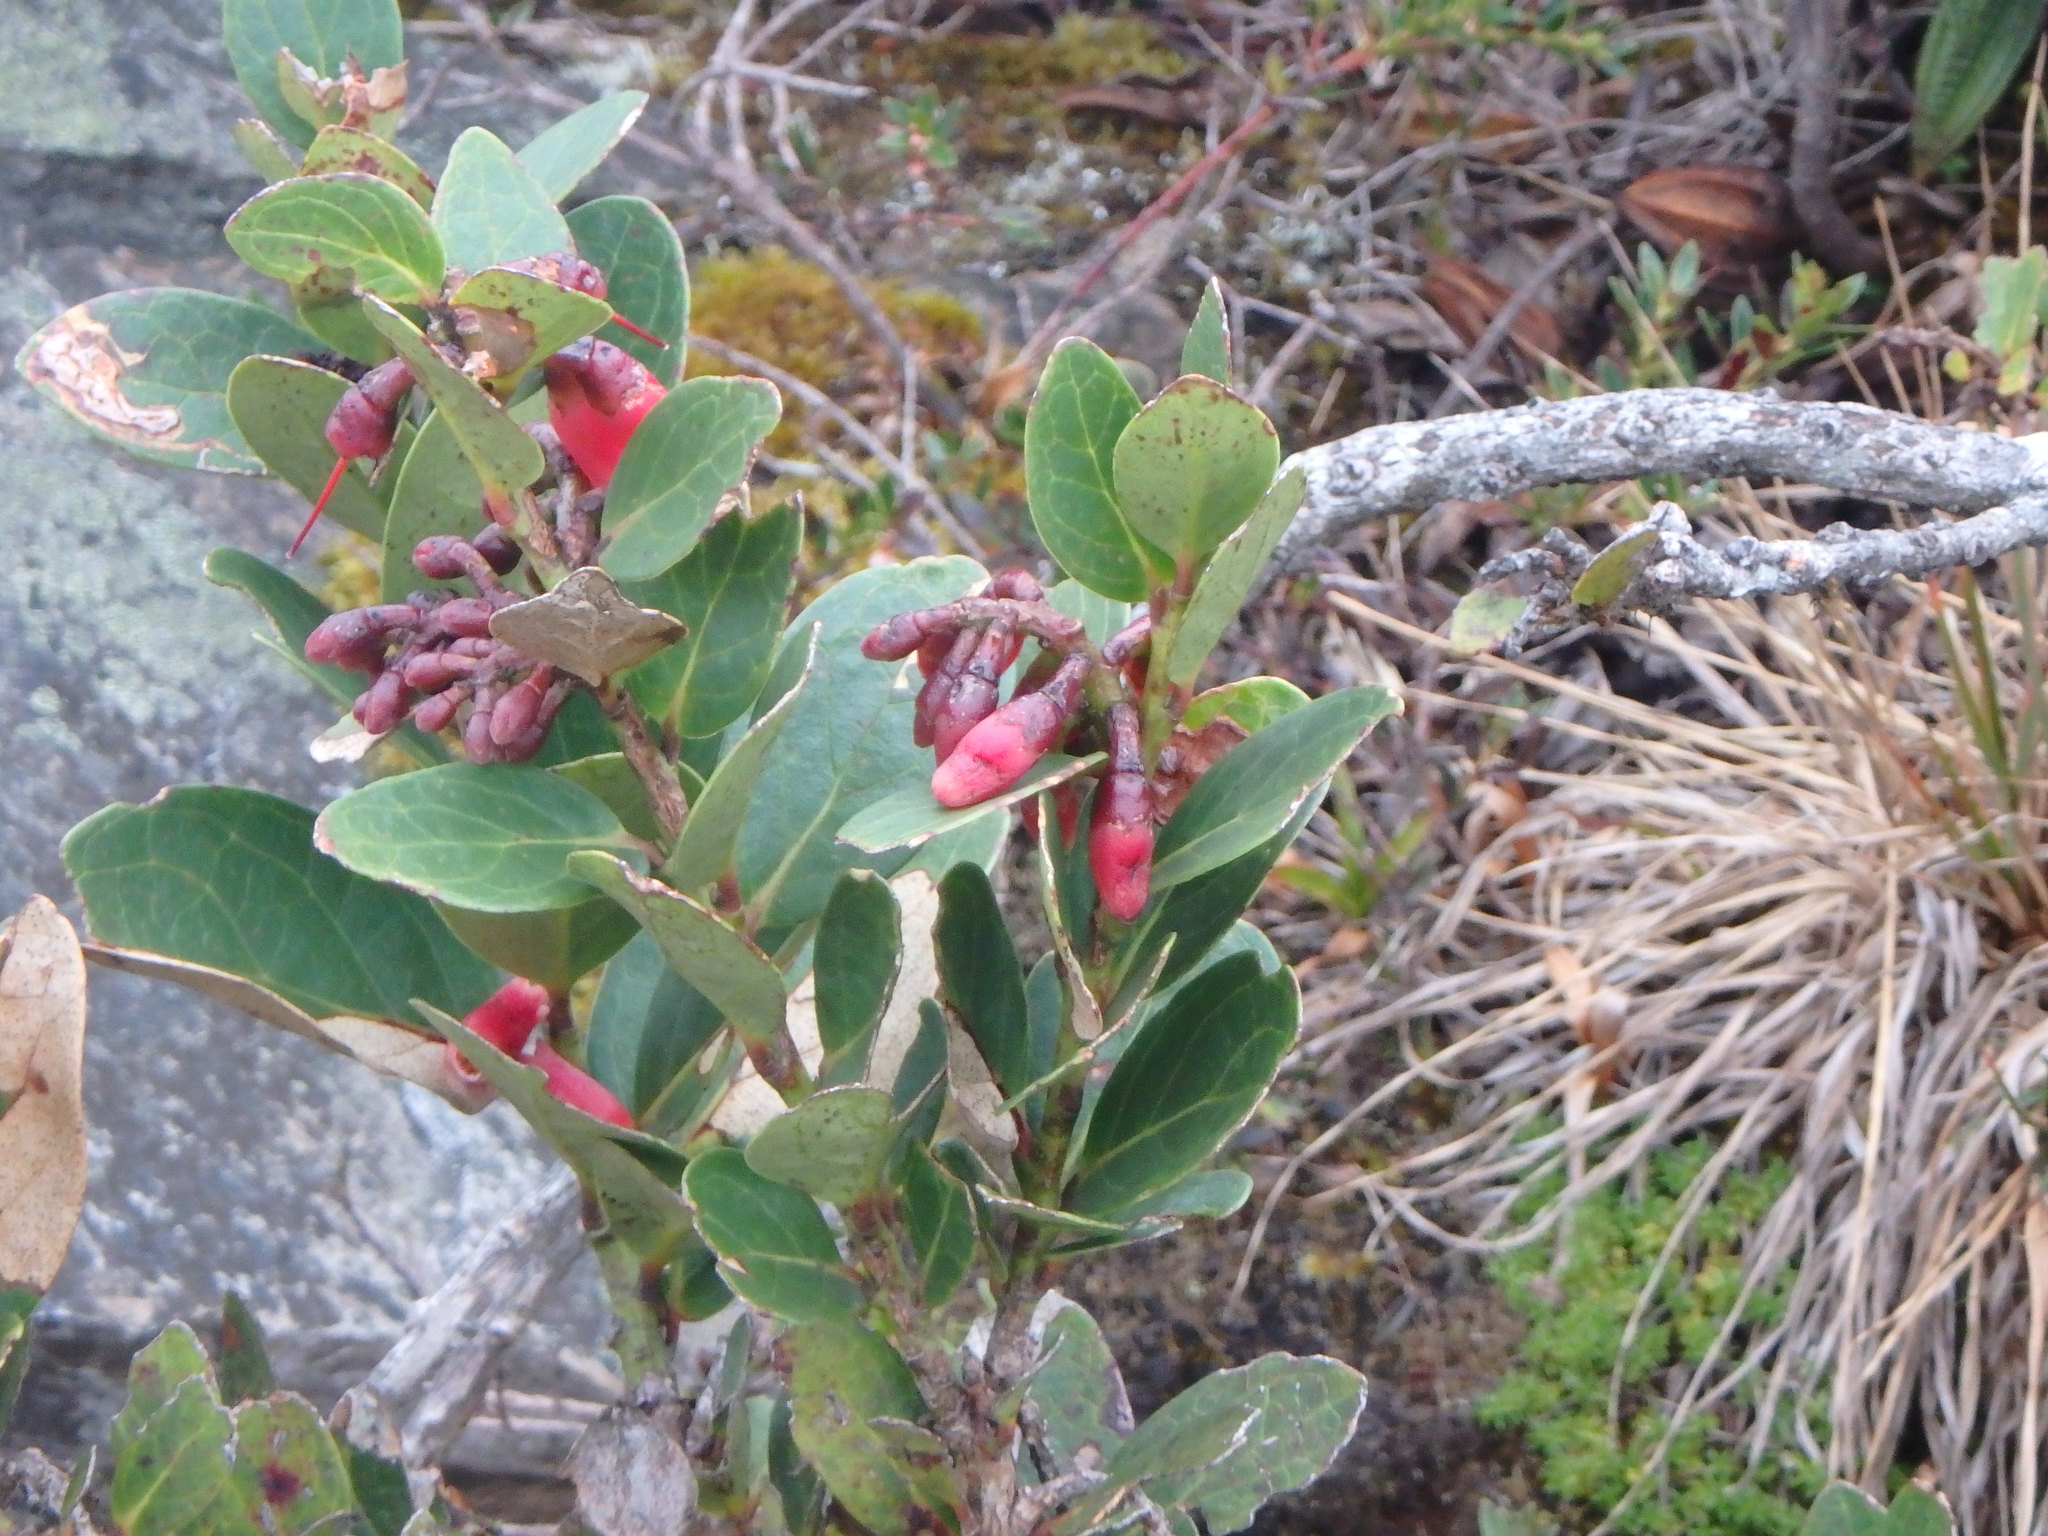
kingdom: Plantae
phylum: Tracheophyta
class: Magnoliopsida
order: Ericales
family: Ericaceae
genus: Macleania
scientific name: Macleania rupestris
